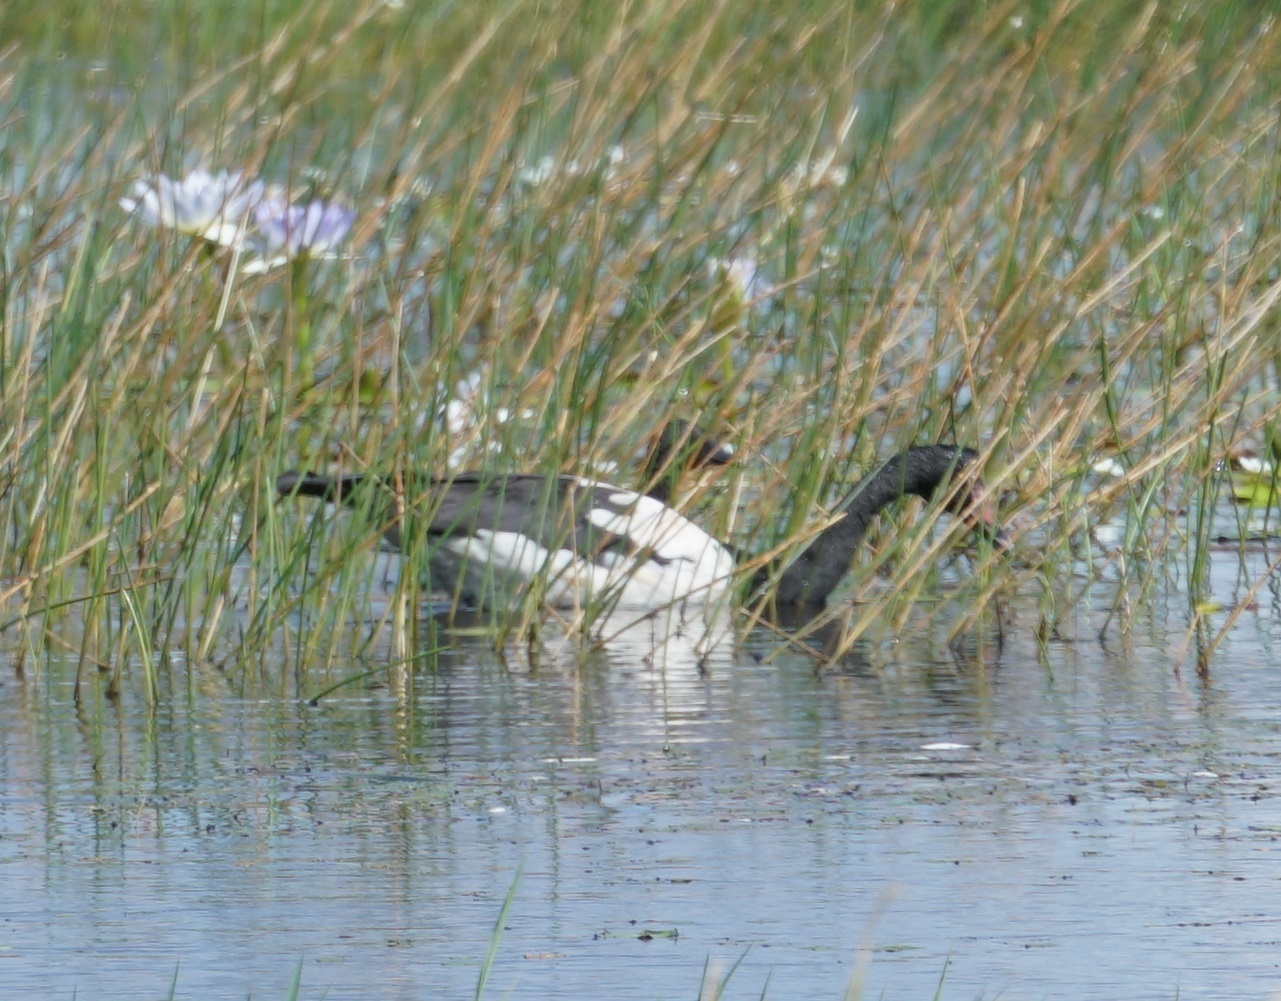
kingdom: Animalia
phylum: Chordata
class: Aves
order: Anseriformes
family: Anseranatidae
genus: Anseranas
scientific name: Anseranas semipalmata
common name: Magpie goose
